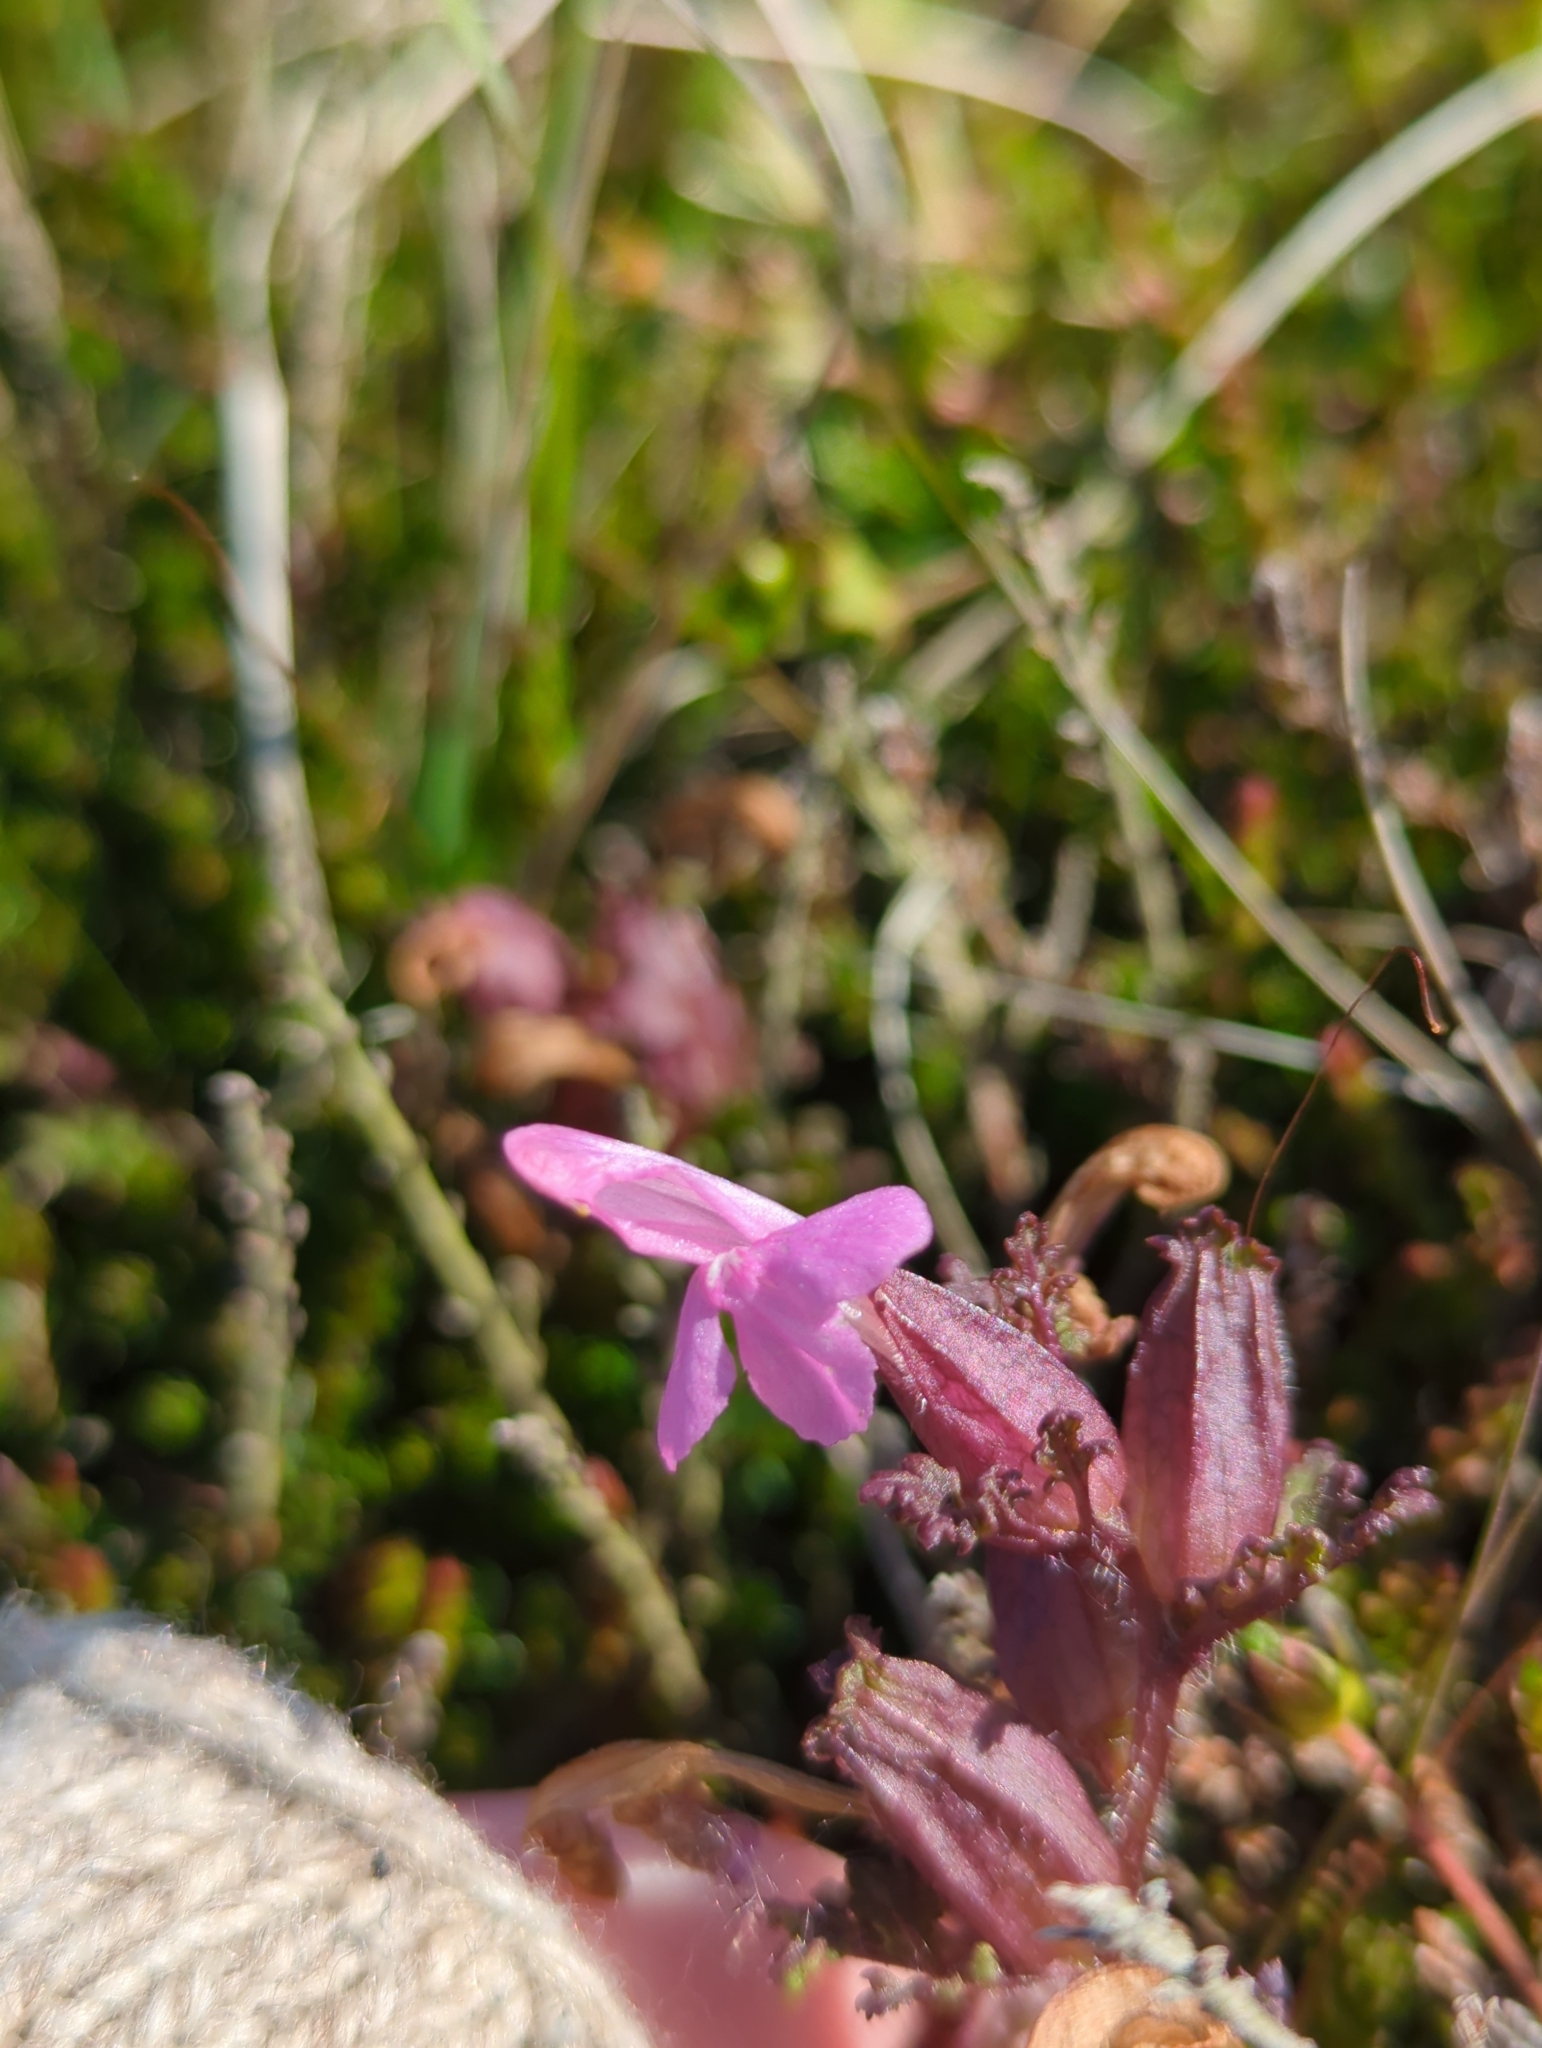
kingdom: Plantae
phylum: Tracheophyta
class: Magnoliopsida
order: Lamiales
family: Orobanchaceae
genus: Pedicularis
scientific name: Pedicularis sylvatica
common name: Lousewort
